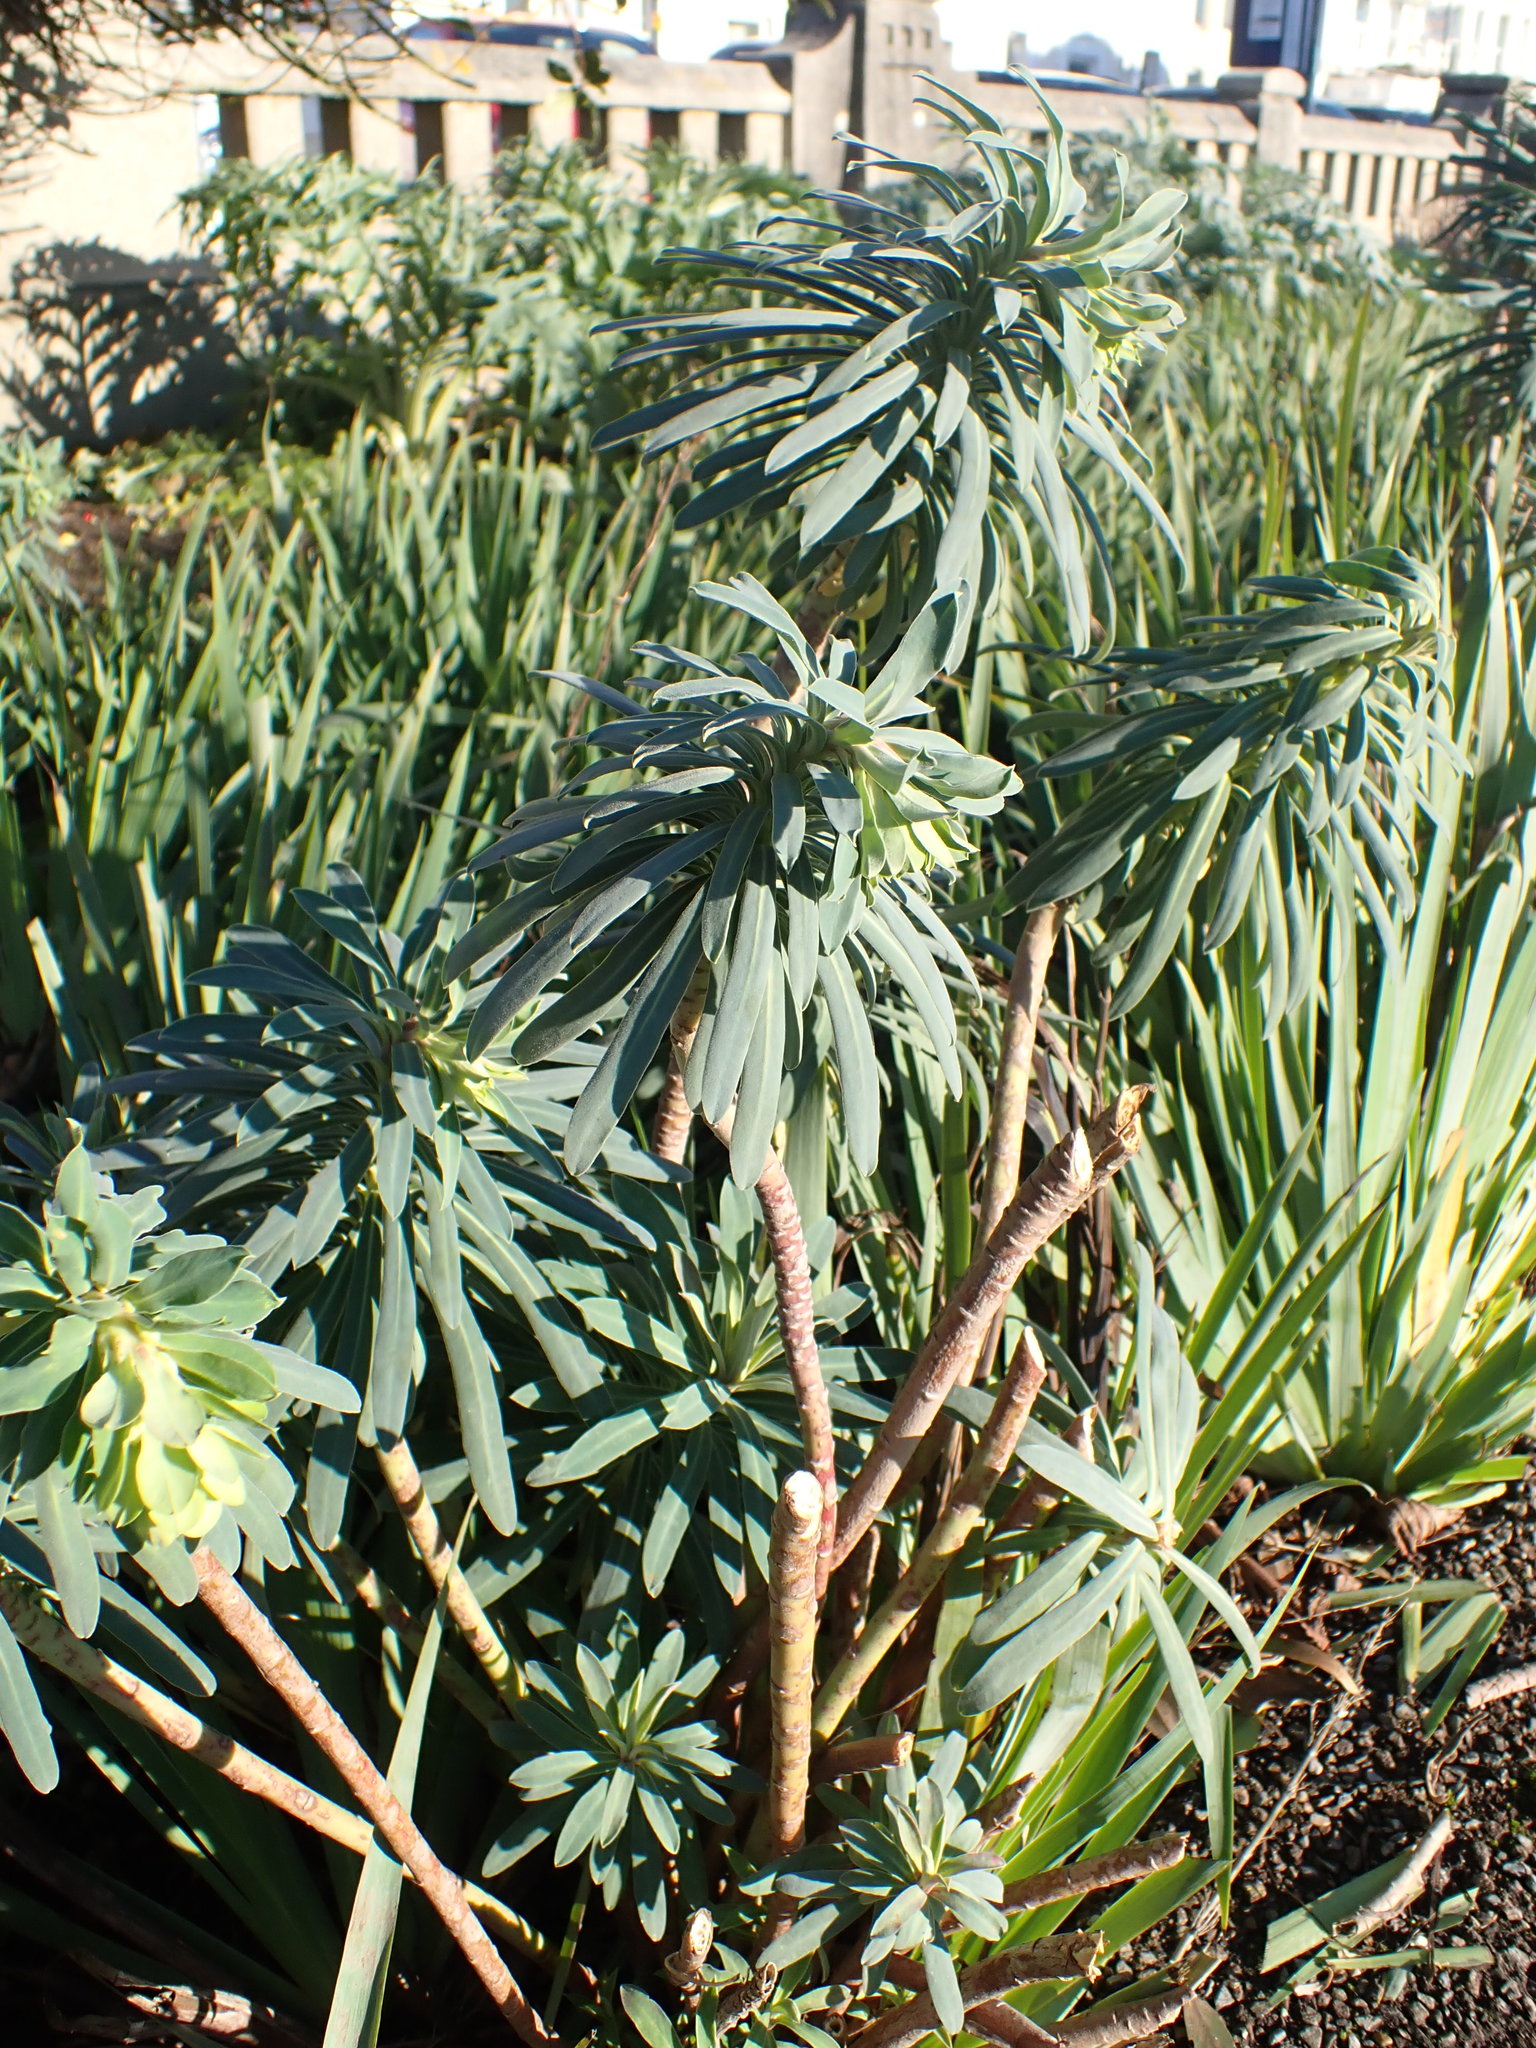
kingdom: Plantae
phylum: Tracheophyta
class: Magnoliopsida
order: Malpighiales
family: Euphorbiaceae
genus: Euphorbia
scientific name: Euphorbia characias
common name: Mediterranean spurge
